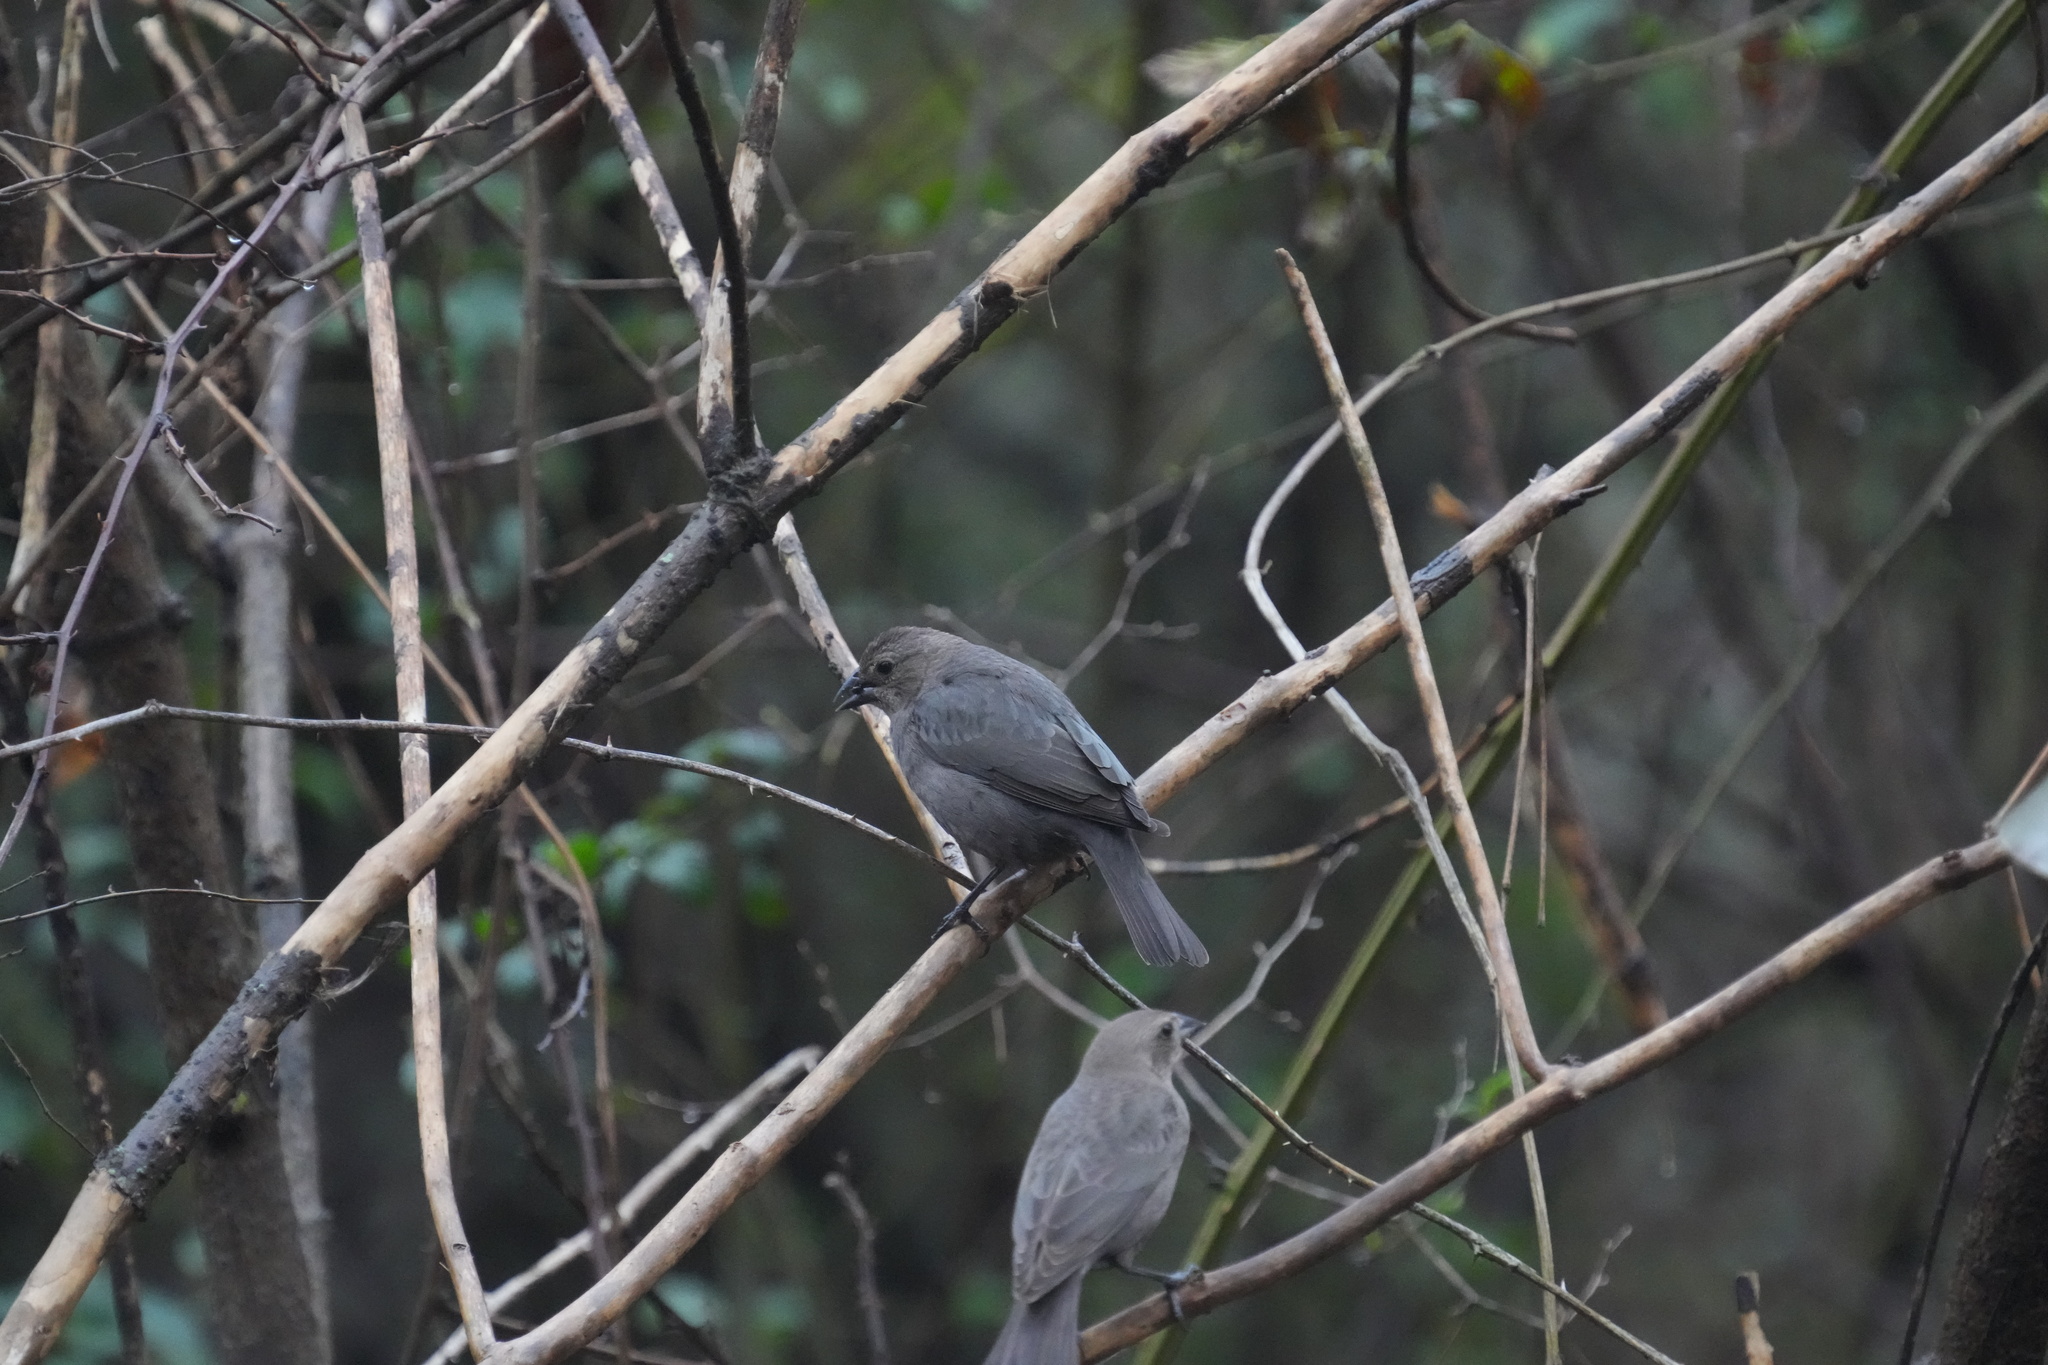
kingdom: Animalia
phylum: Chordata
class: Aves
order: Passeriformes
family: Icteridae
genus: Molothrus
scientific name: Molothrus ater
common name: Brown-headed cowbird
